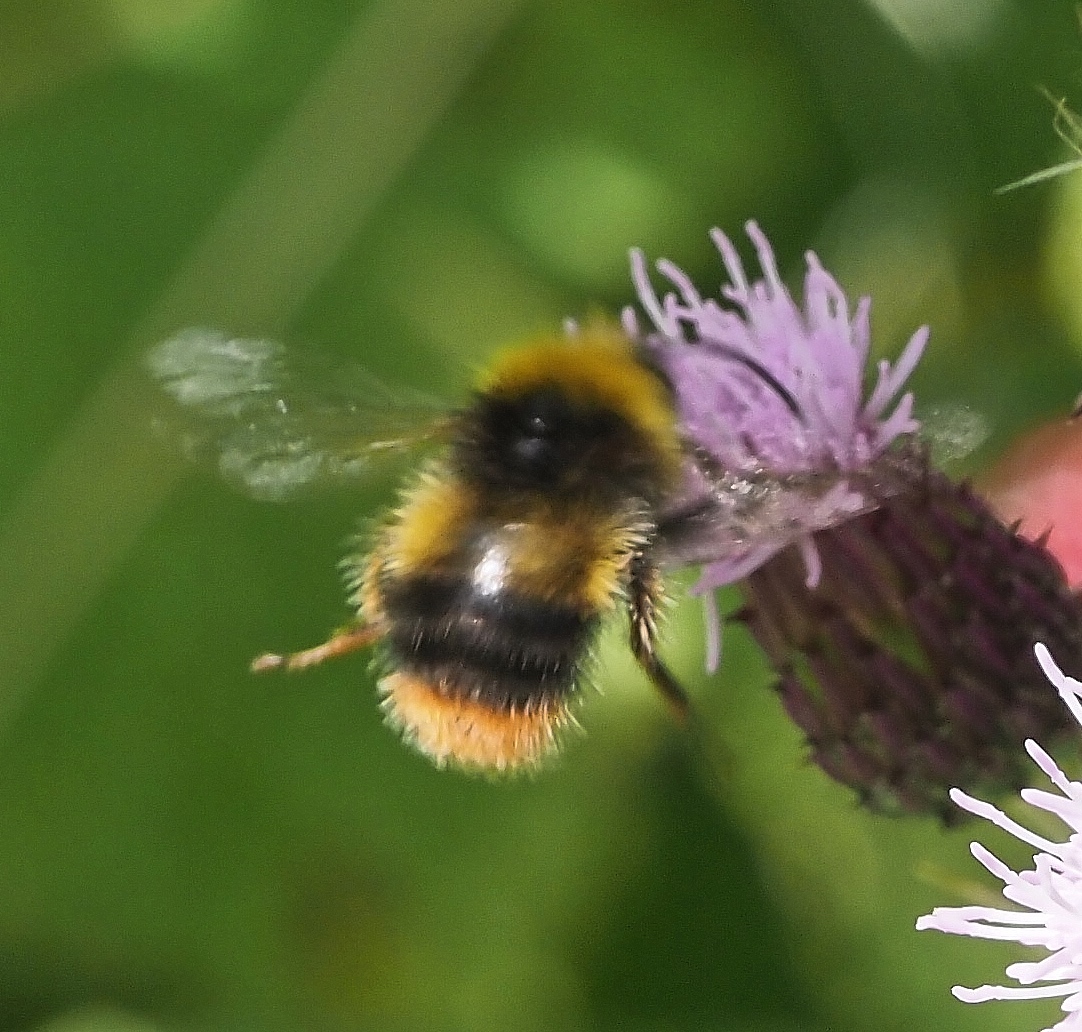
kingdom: Animalia
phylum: Arthropoda
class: Insecta
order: Hymenoptera
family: Apidae
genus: Bombus
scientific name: Bombus pratorum
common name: Early humble-bee
